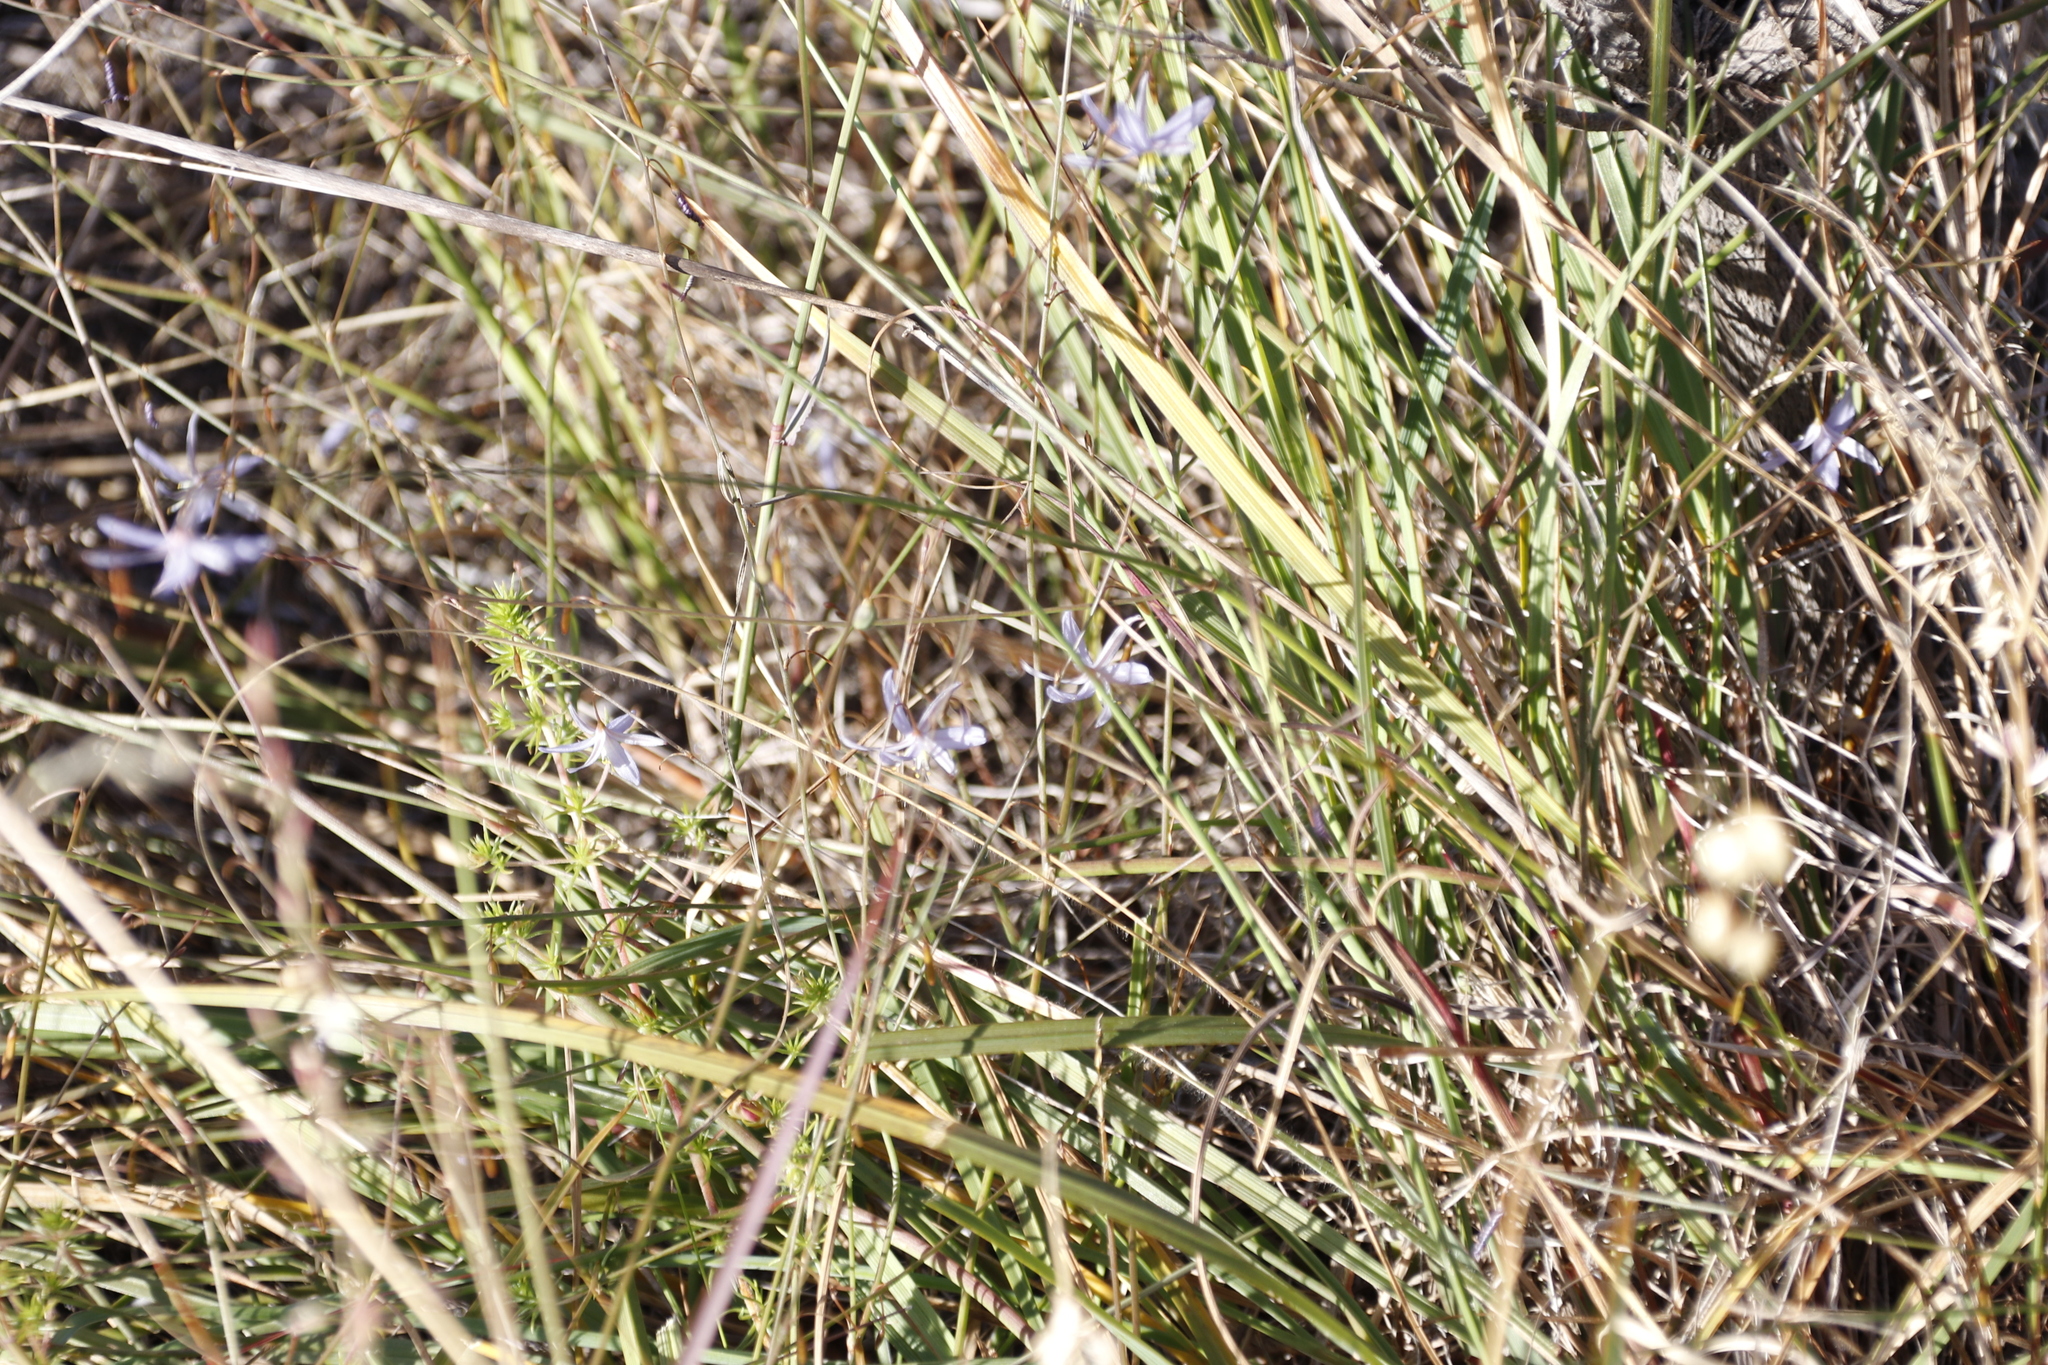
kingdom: Plantae
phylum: Tracheophyta
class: Liliopsida
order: Asparagales
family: Asphodelaceae
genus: Caesia
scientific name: Caesia contorta
